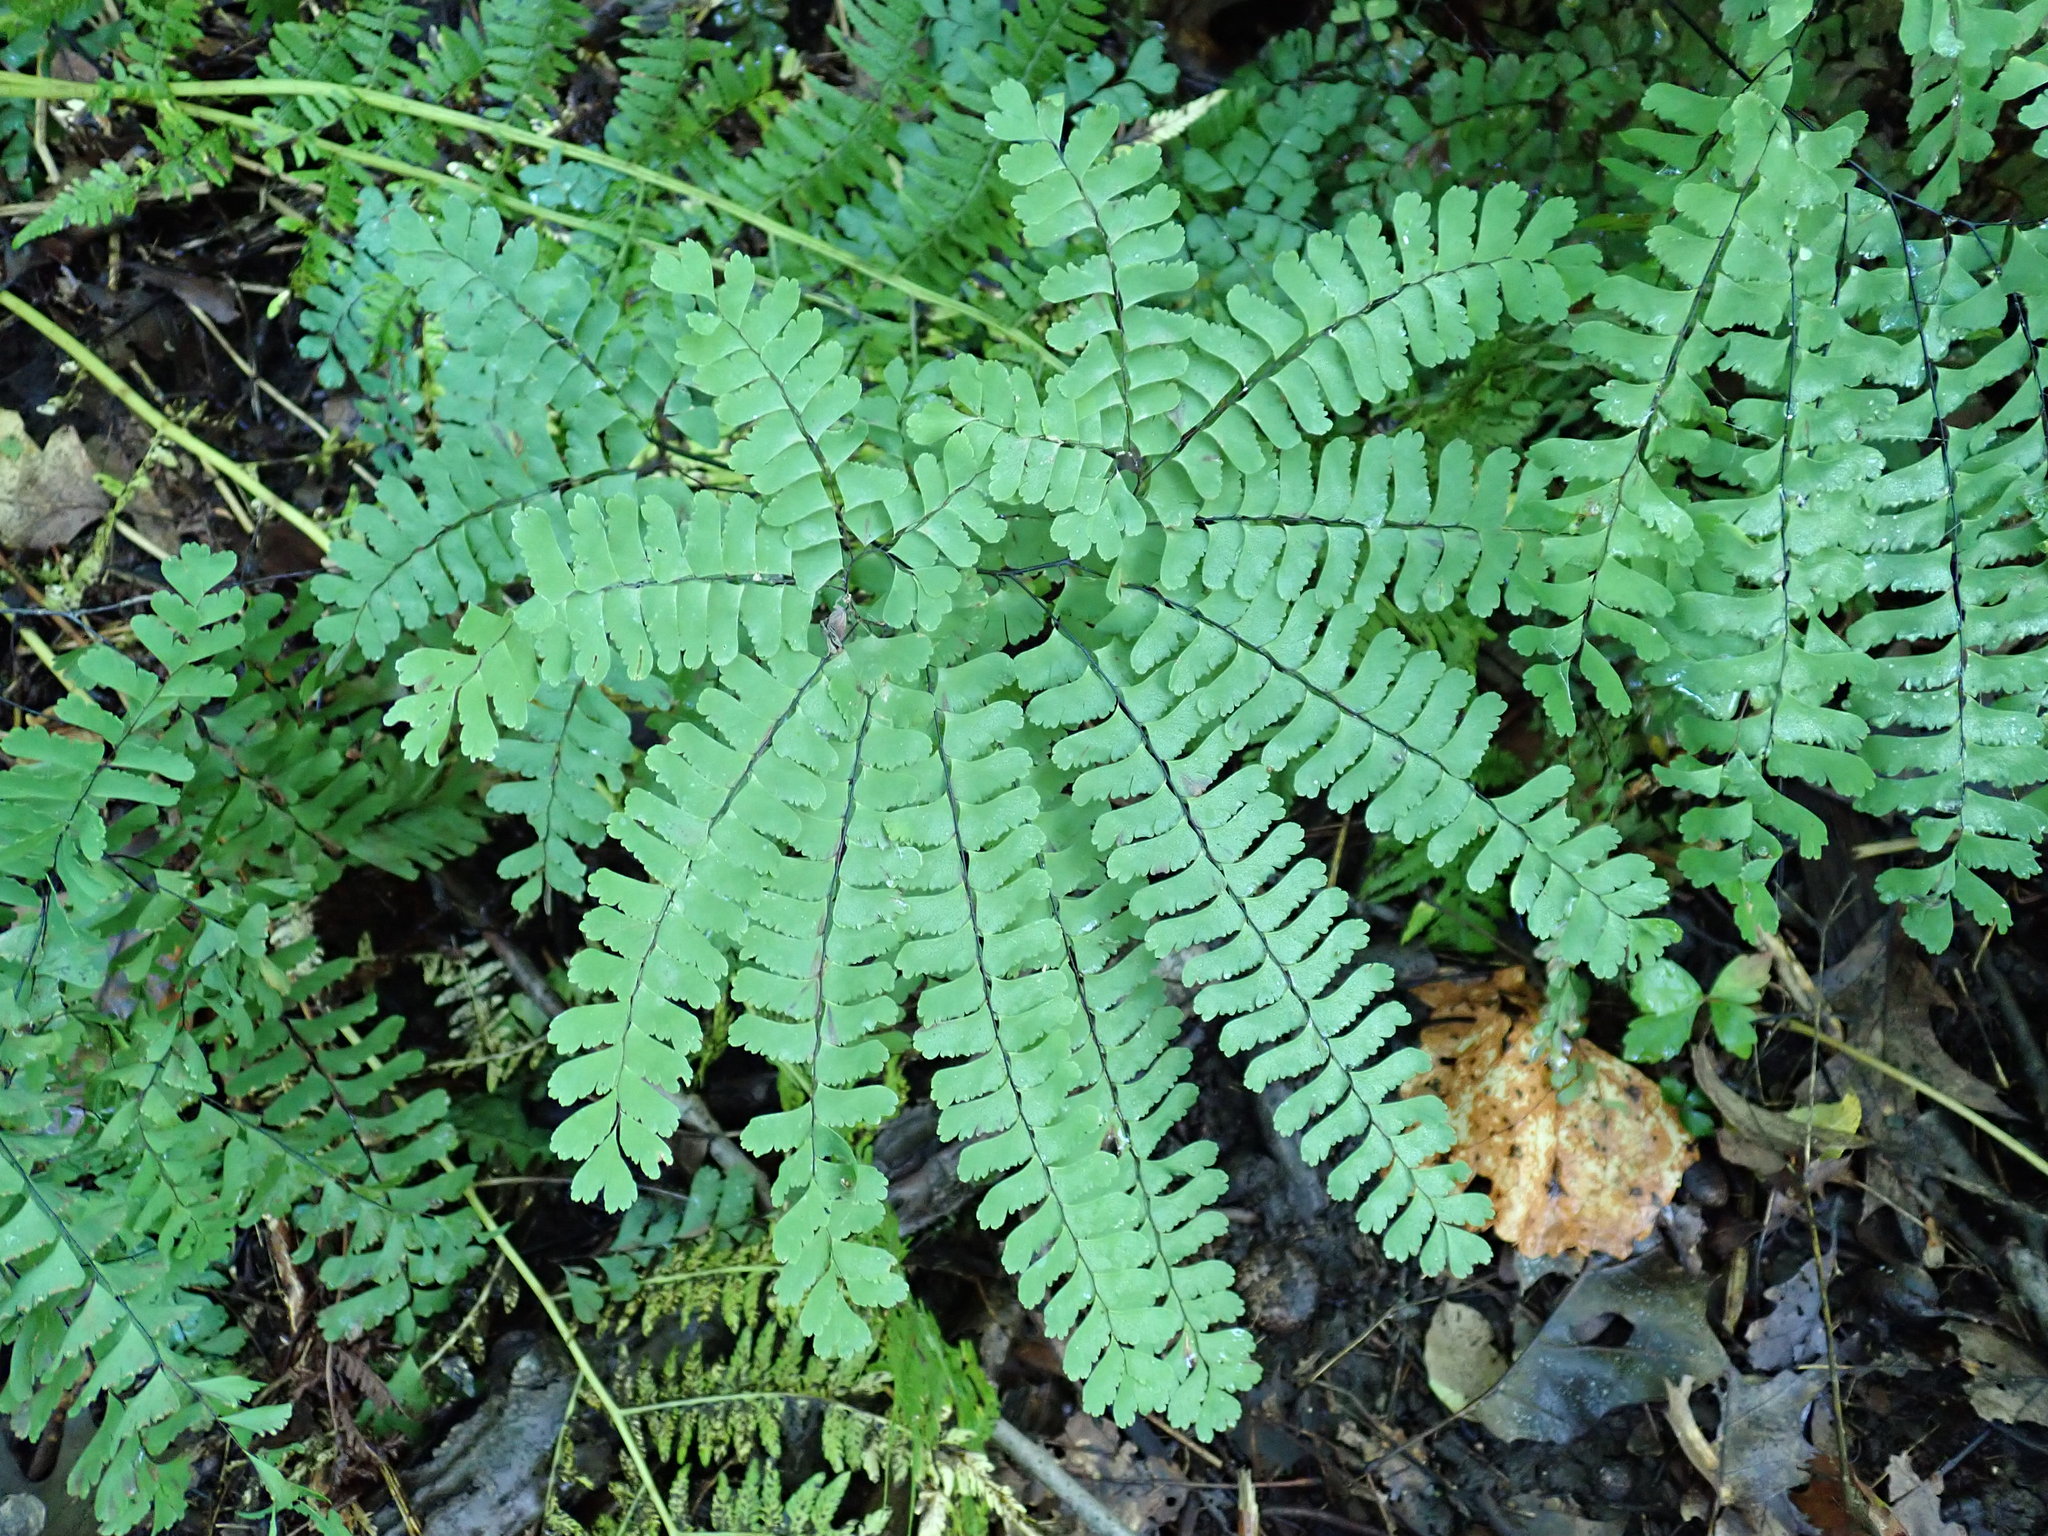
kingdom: Plantae
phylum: Tracheophyta
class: Polypodiopsida
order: Polypodiales
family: Pteridaceae
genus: Adiantum
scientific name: Adiantum pedatum
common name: Five-finger fern
